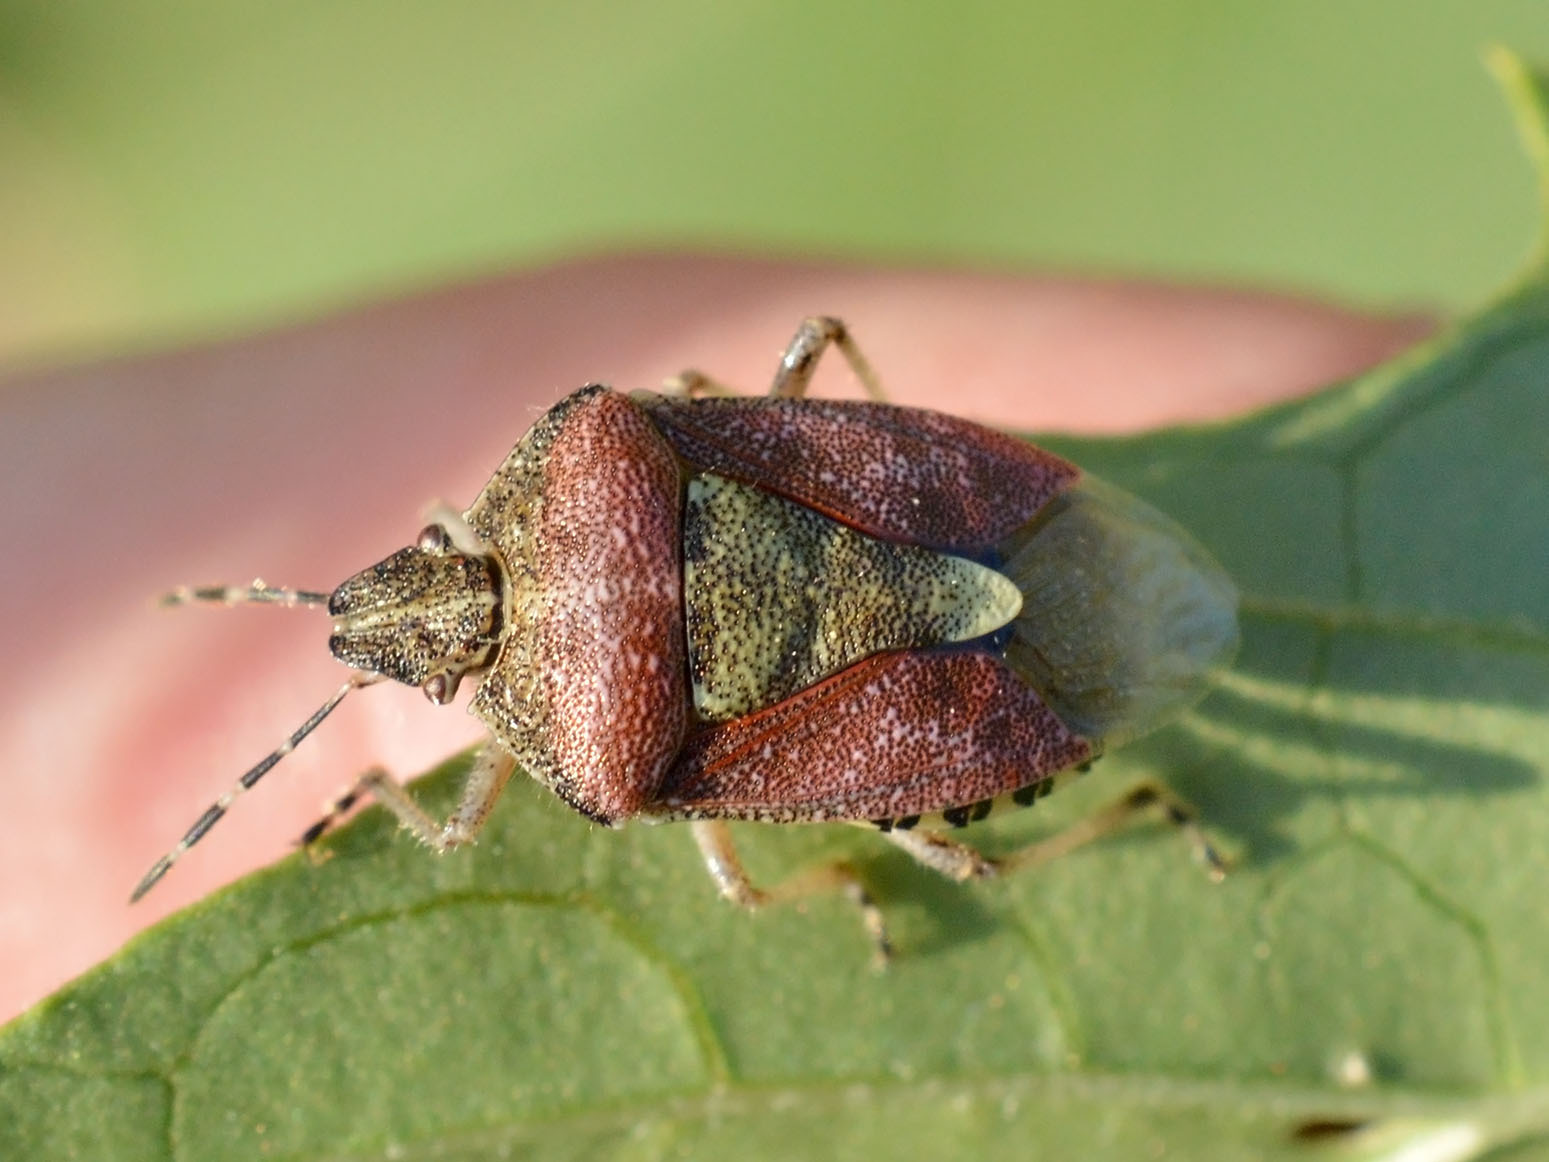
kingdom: Animalia
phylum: Arthropoda
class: Insecta
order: Hemiptera
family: Pentatomidae
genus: Dolycoris
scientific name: Dolycoris baccarum
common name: Sloe bug
